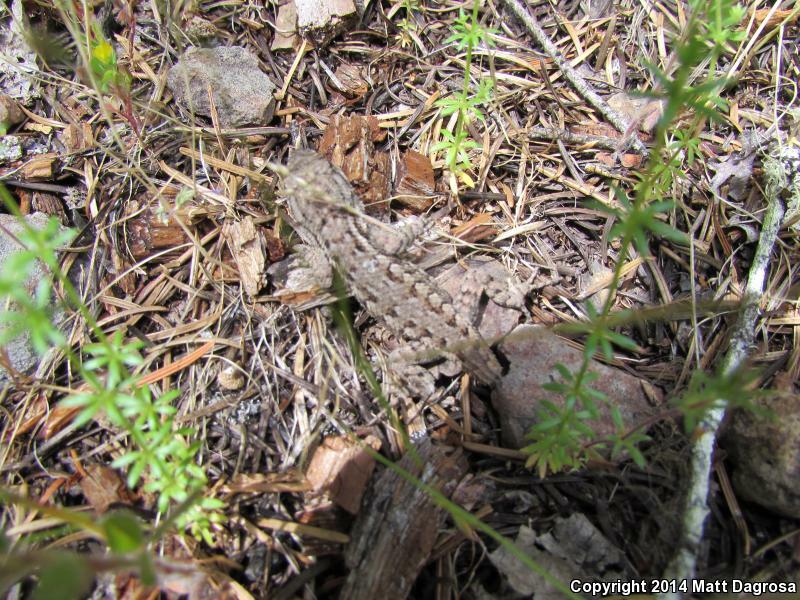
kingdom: Animalia
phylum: Chordata
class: Squamata
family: Phrynosomatidae
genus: Sceloporus
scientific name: Sceloporus occidentalis
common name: Western fence lizard
